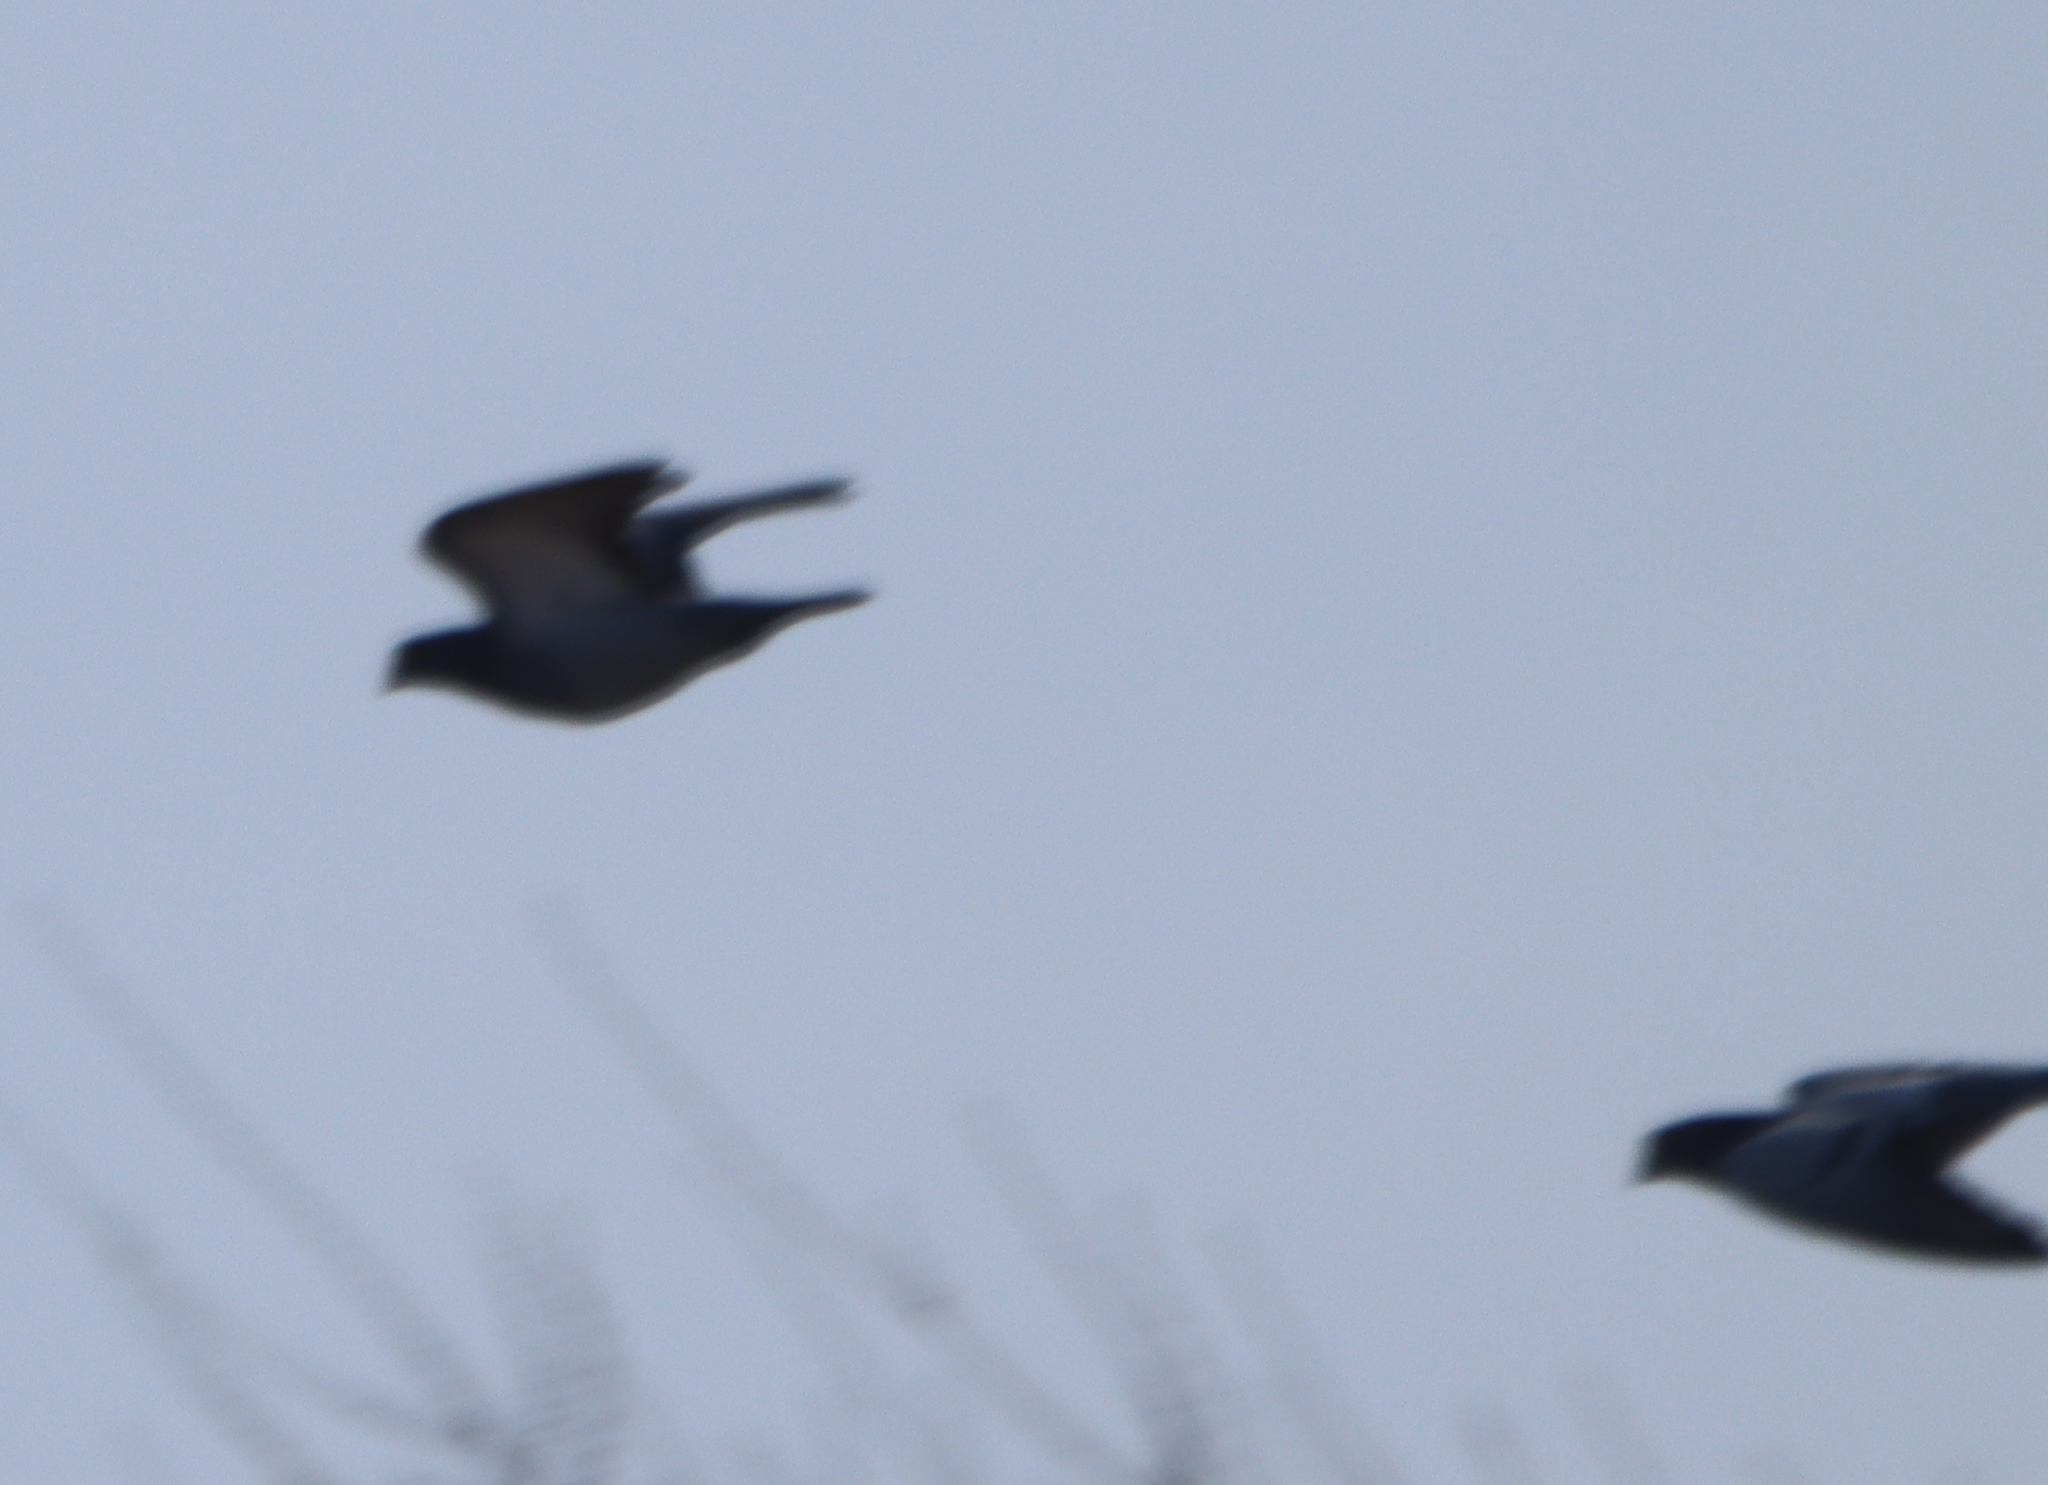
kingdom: Animalia
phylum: Chordata
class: Aves
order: Columbiformes
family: Columbidae
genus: Columba
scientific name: Columba livia
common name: Rock pigeon
